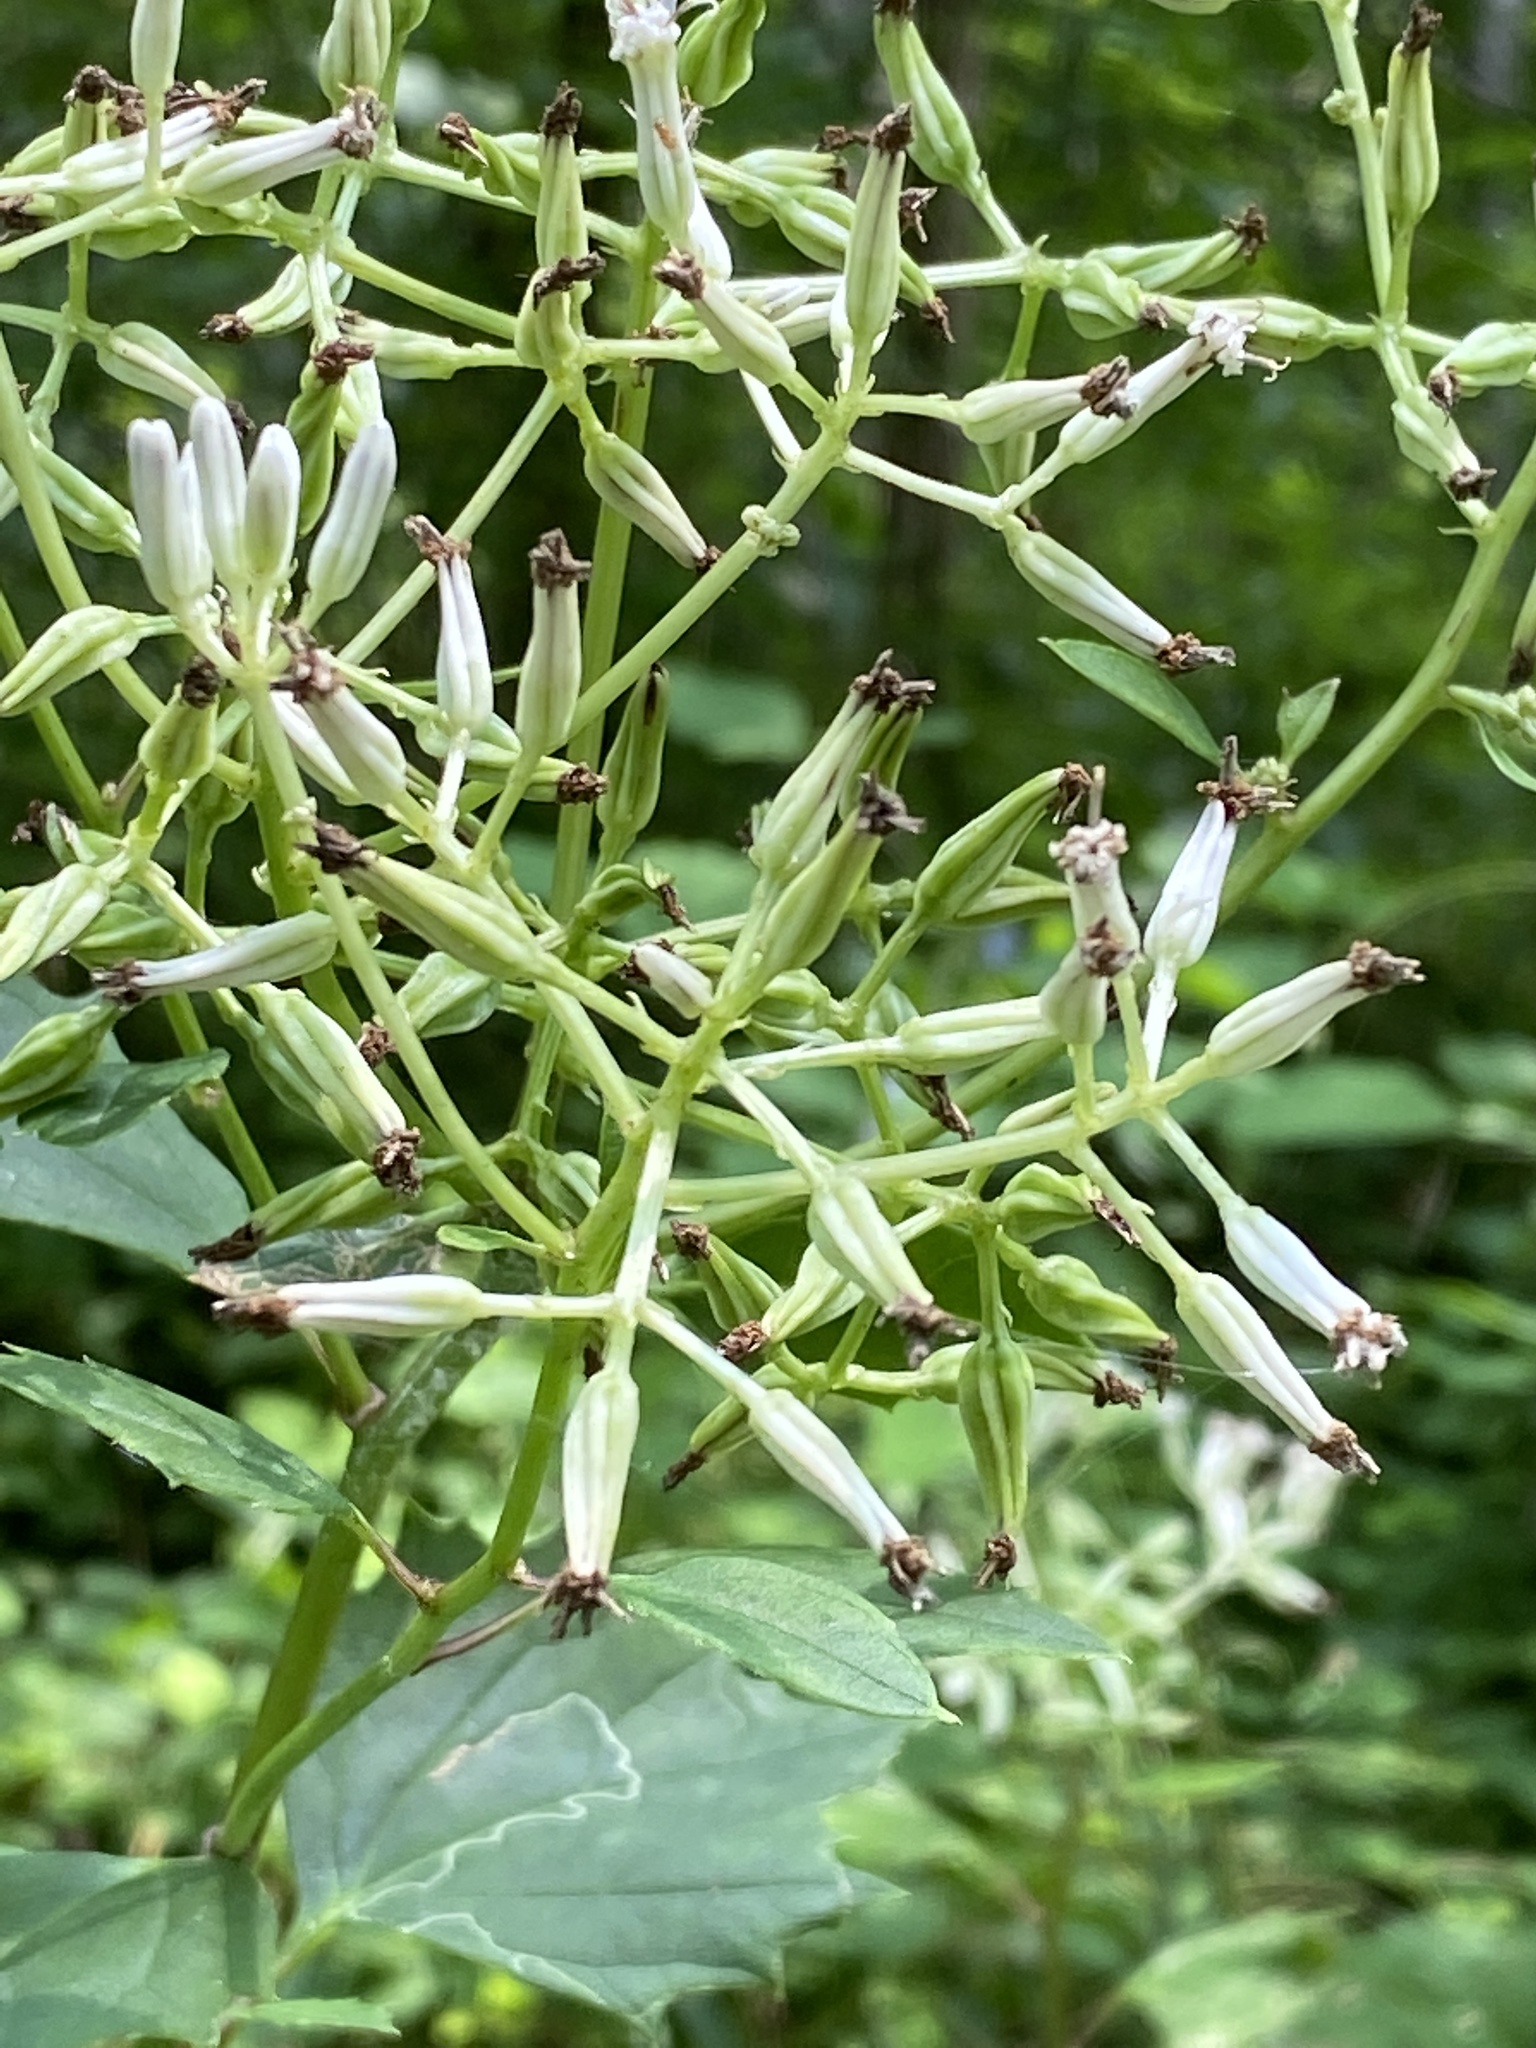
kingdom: Plantae
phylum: Tracheophyta
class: Magnoliopsida
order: Asterales
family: Asteraceae
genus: Arnoglossum
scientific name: Arnoglossum atriplicifolium
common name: Pale indian-plantain
